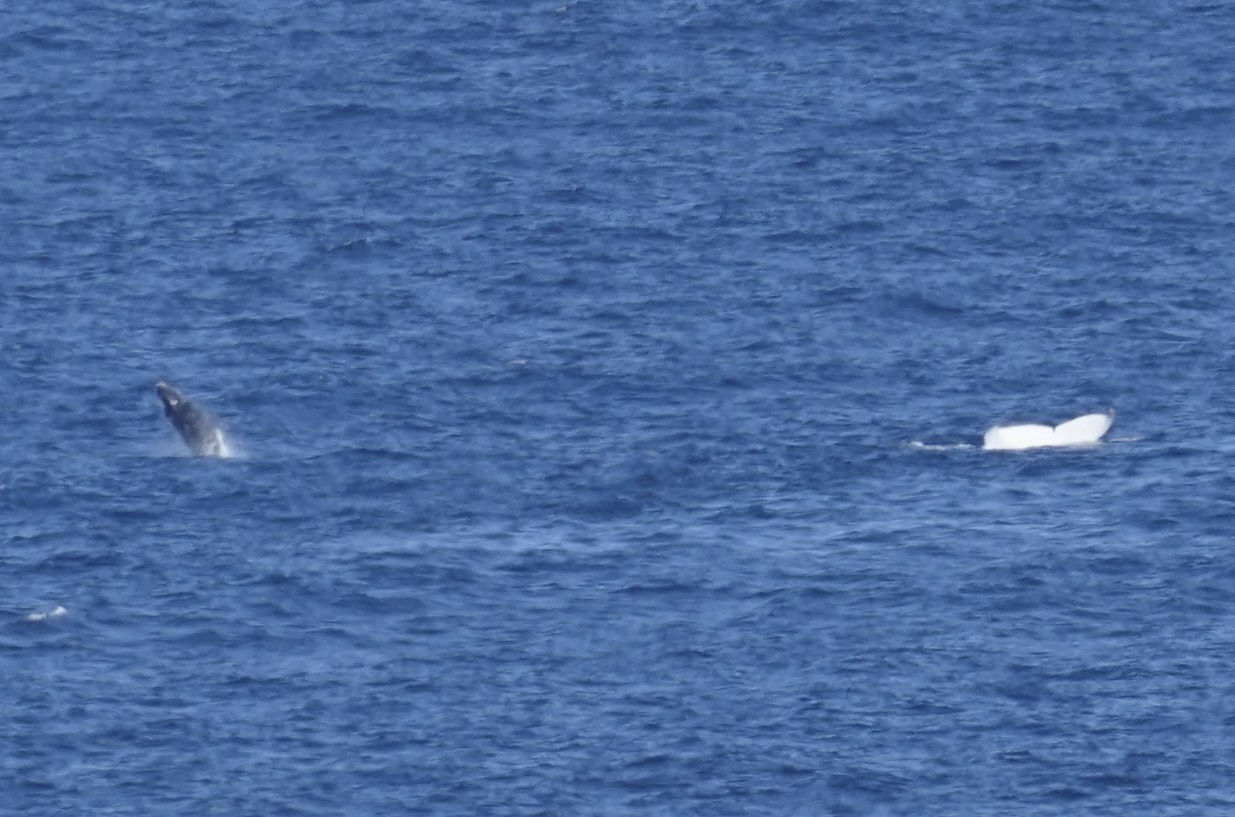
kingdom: Animalia
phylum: Chordata
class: Mammalia
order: Cetacea
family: Balaenopteridae
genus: Megaptera
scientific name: Megaptera novaeangliae
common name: Humpback whale
